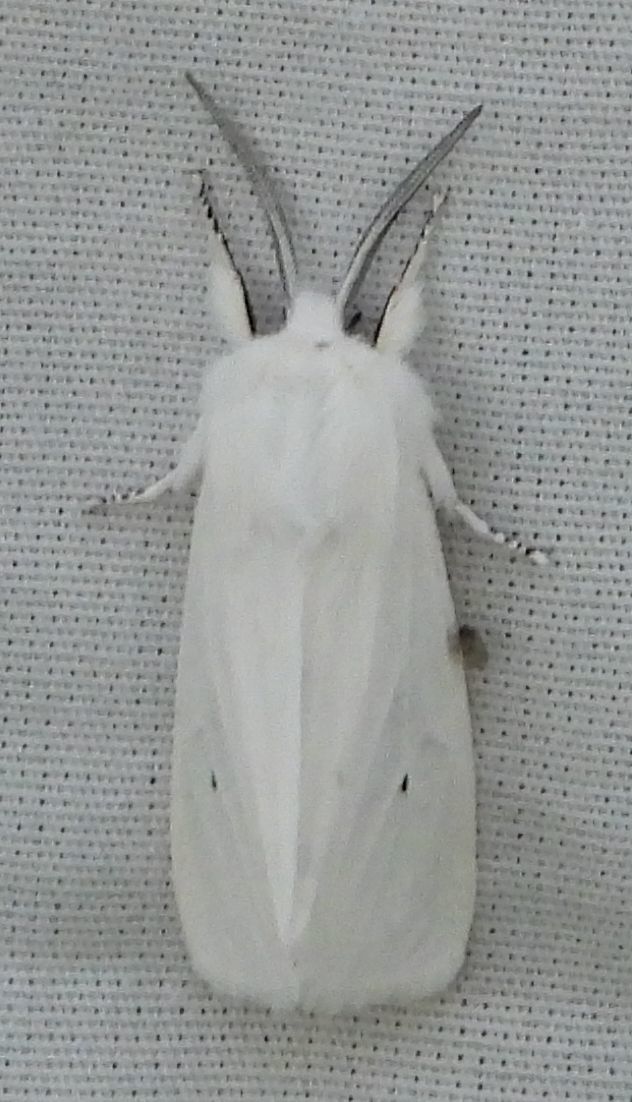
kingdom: Animalia
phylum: Arthropoda
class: Insecta
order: Lepidoptera
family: Erebidae
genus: Spilosoma
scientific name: Spilosoma virginica
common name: Virginia tiger moth
